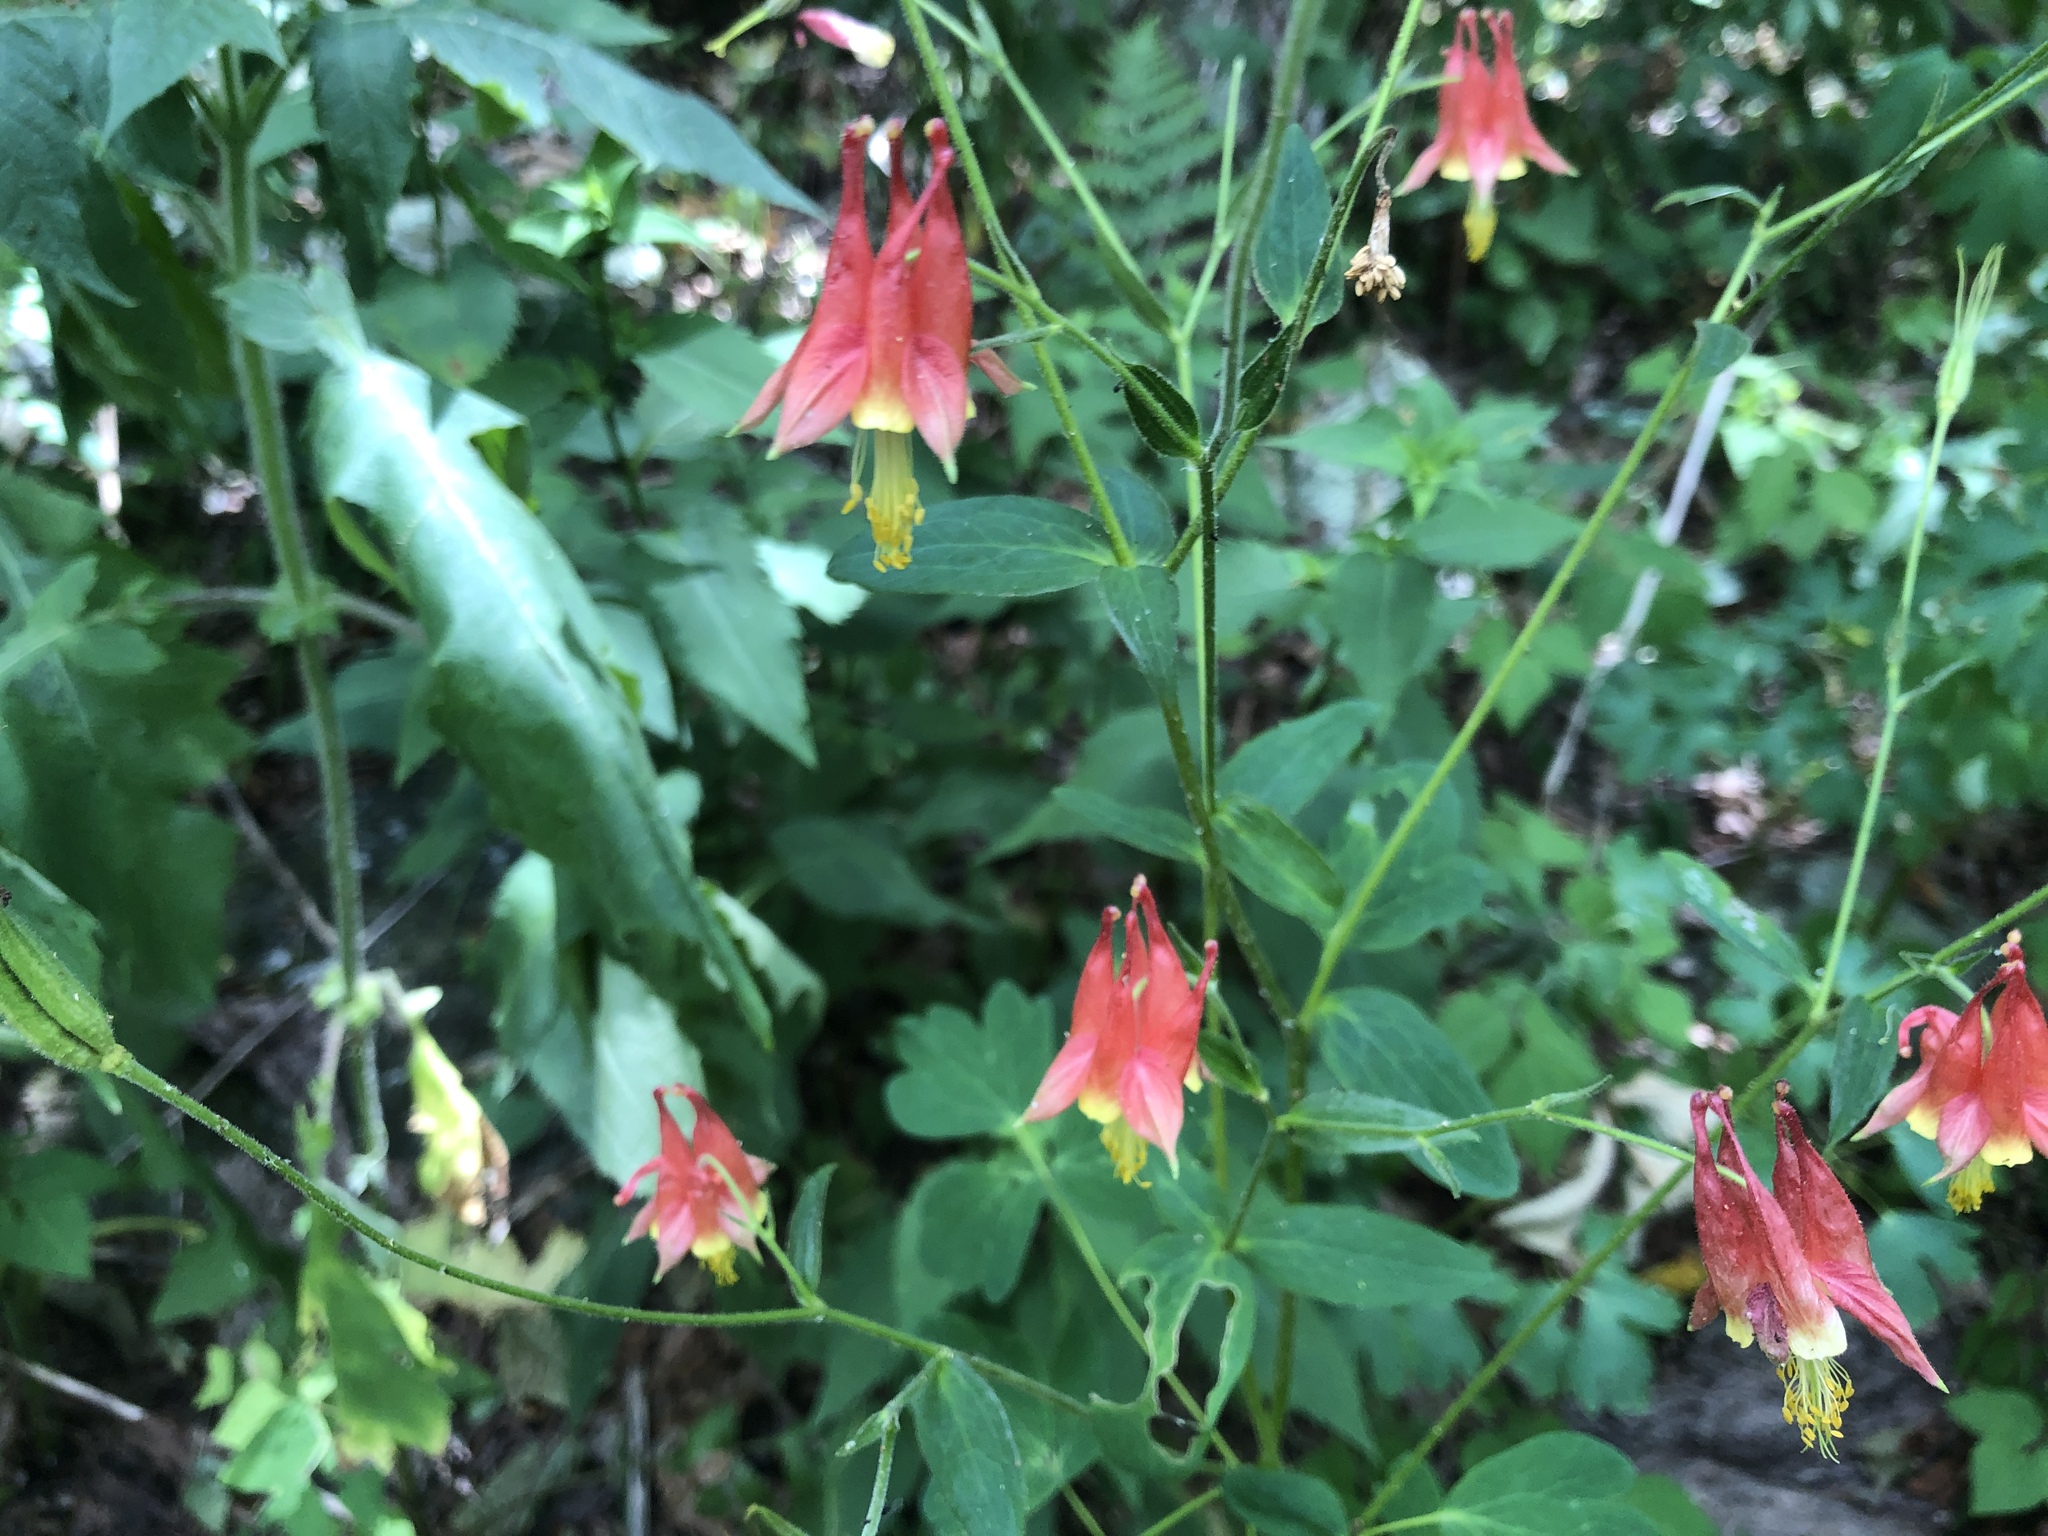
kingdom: Plantae
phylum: Tracheophyta
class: Magnoliopsida
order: Ranunculales
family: Ranunculaceae
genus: Aquilegia
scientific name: Aquilegia canadensis
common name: American columbine
